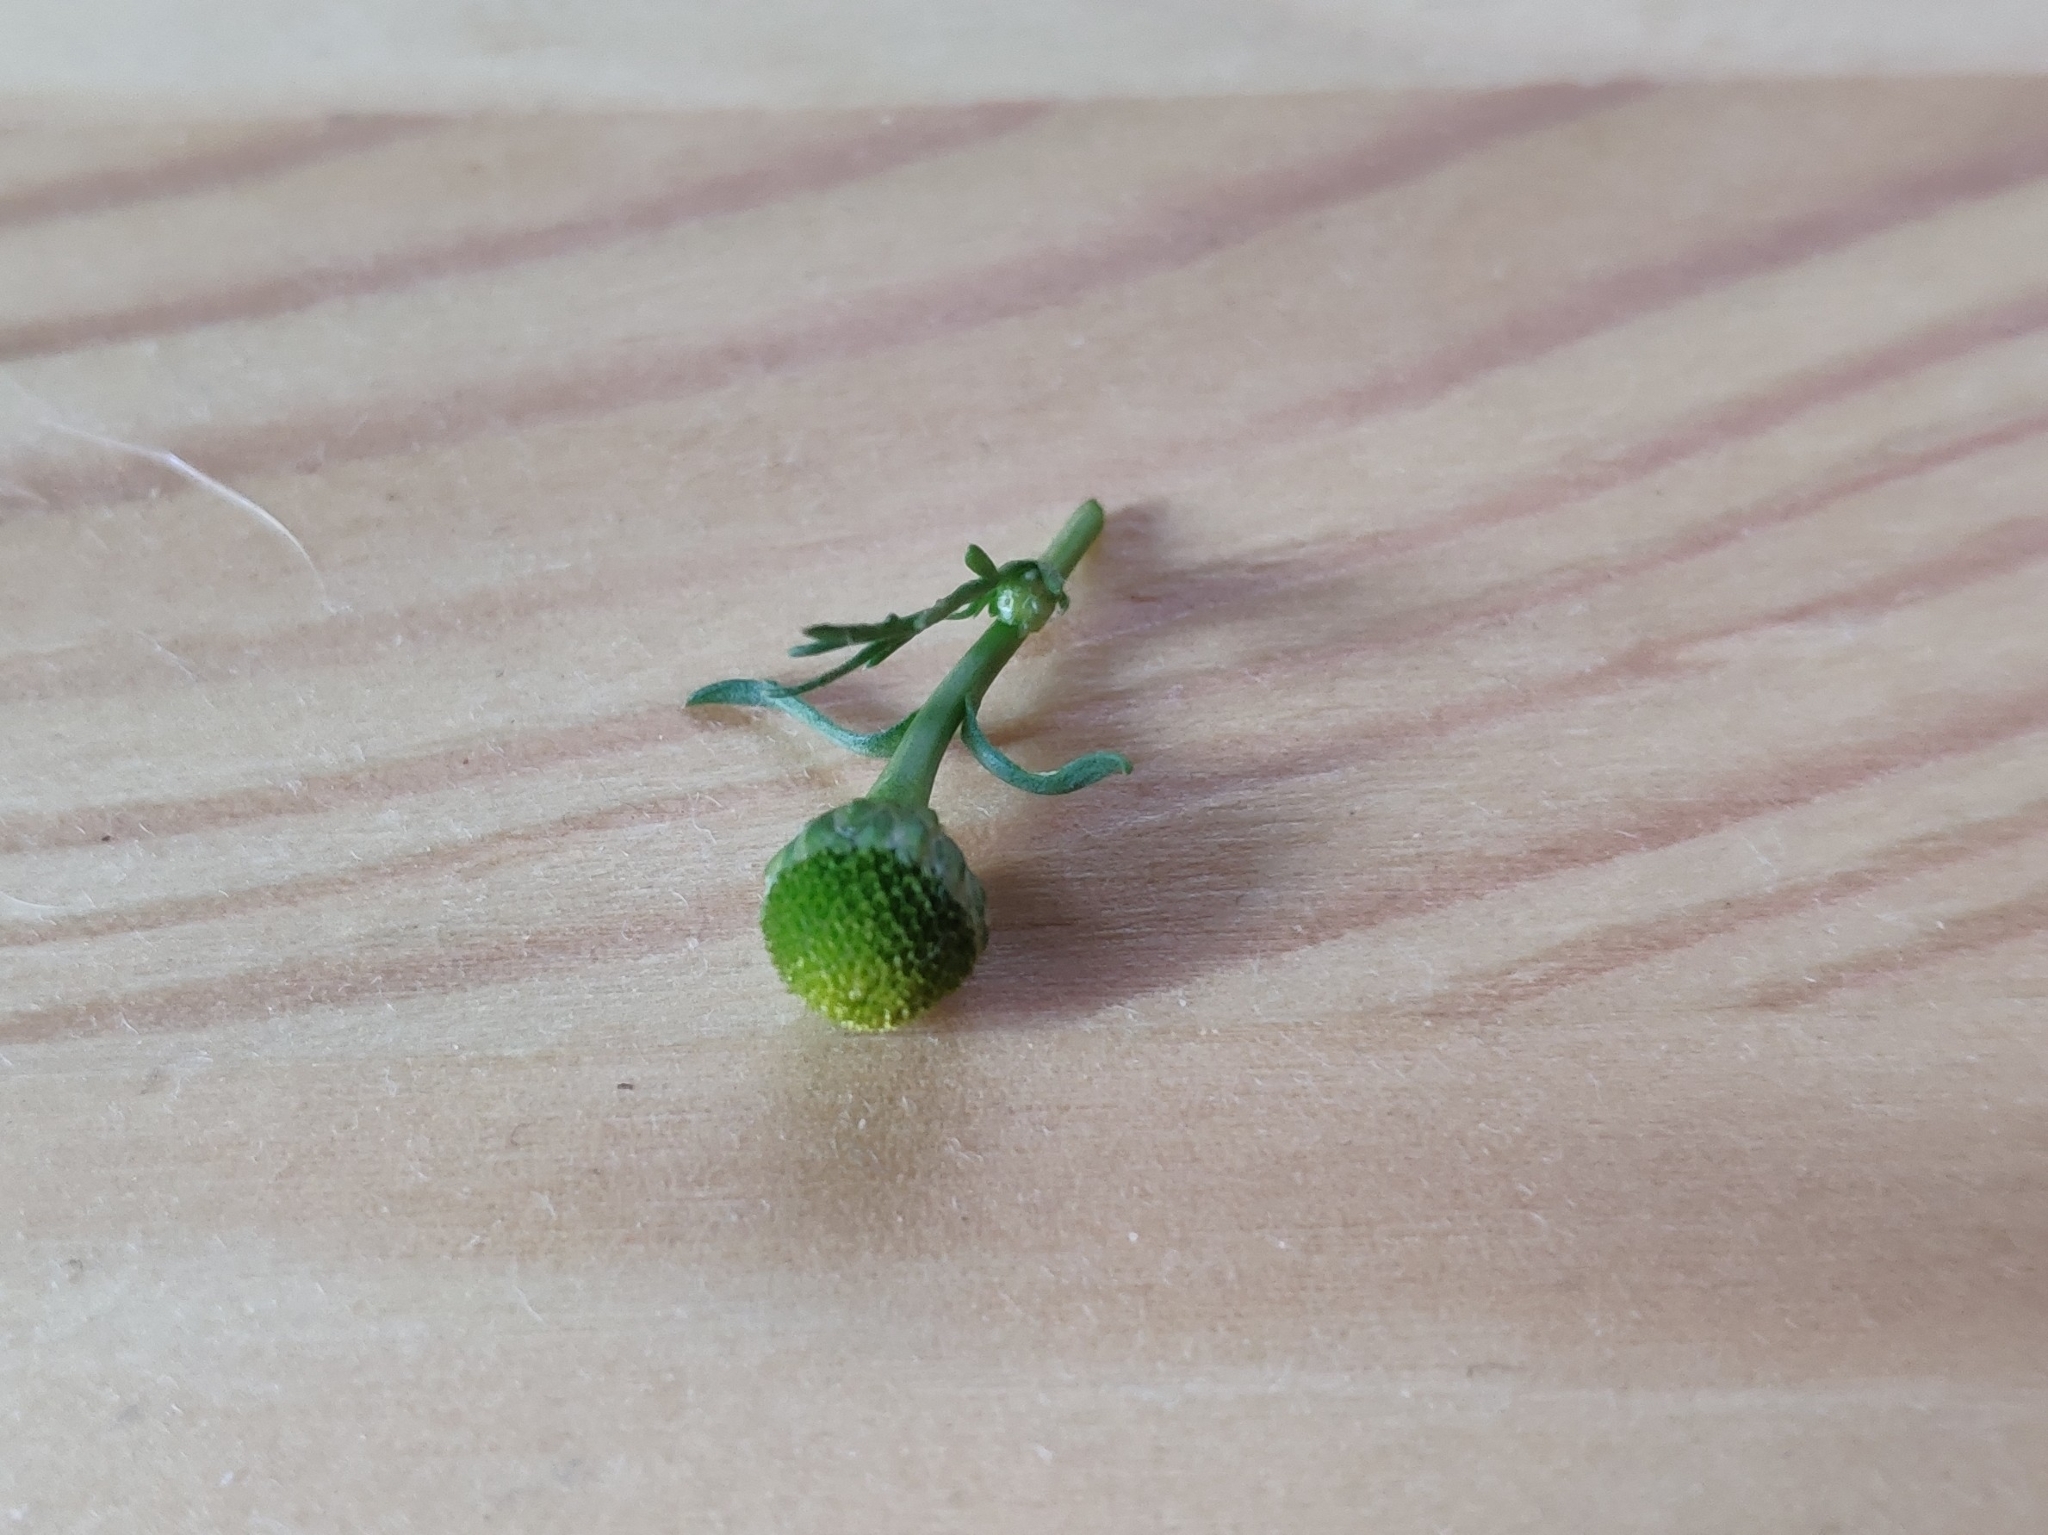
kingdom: Plantae
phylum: Tracheophyta
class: Magnoliopsida
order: Asterales
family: Asteraceae
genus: Matricaria
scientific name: Matricaria discoidea
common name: Disc mayweed
